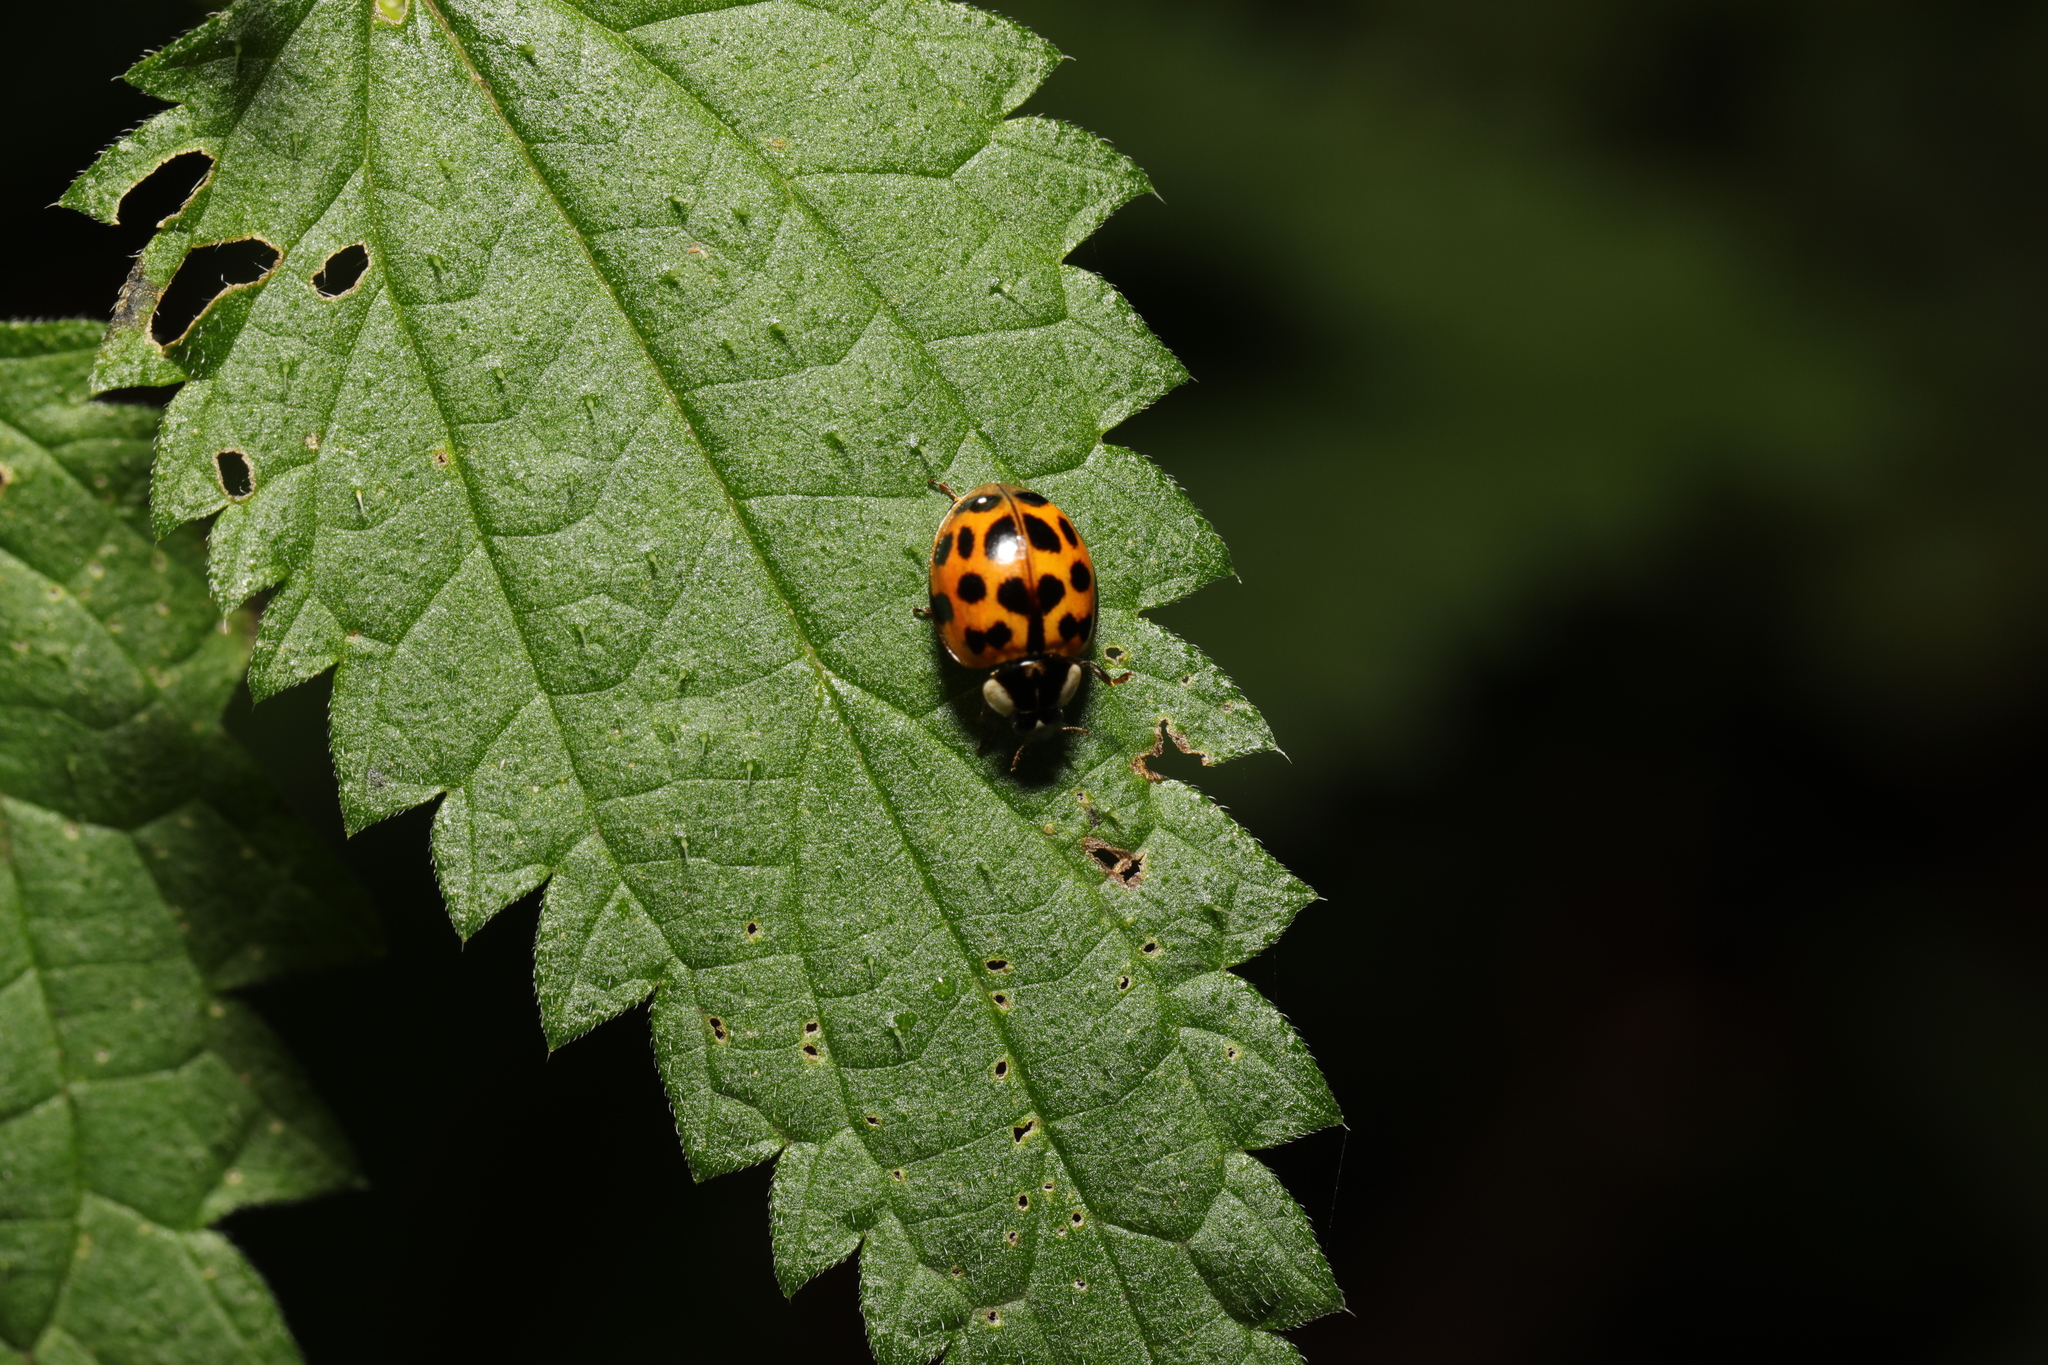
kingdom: Animalia
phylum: Arthropoda
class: Insecta
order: Coleoptera
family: Coccinellidae
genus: Harmonia
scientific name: Harmonia axyridis
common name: Harlequin ladybird
